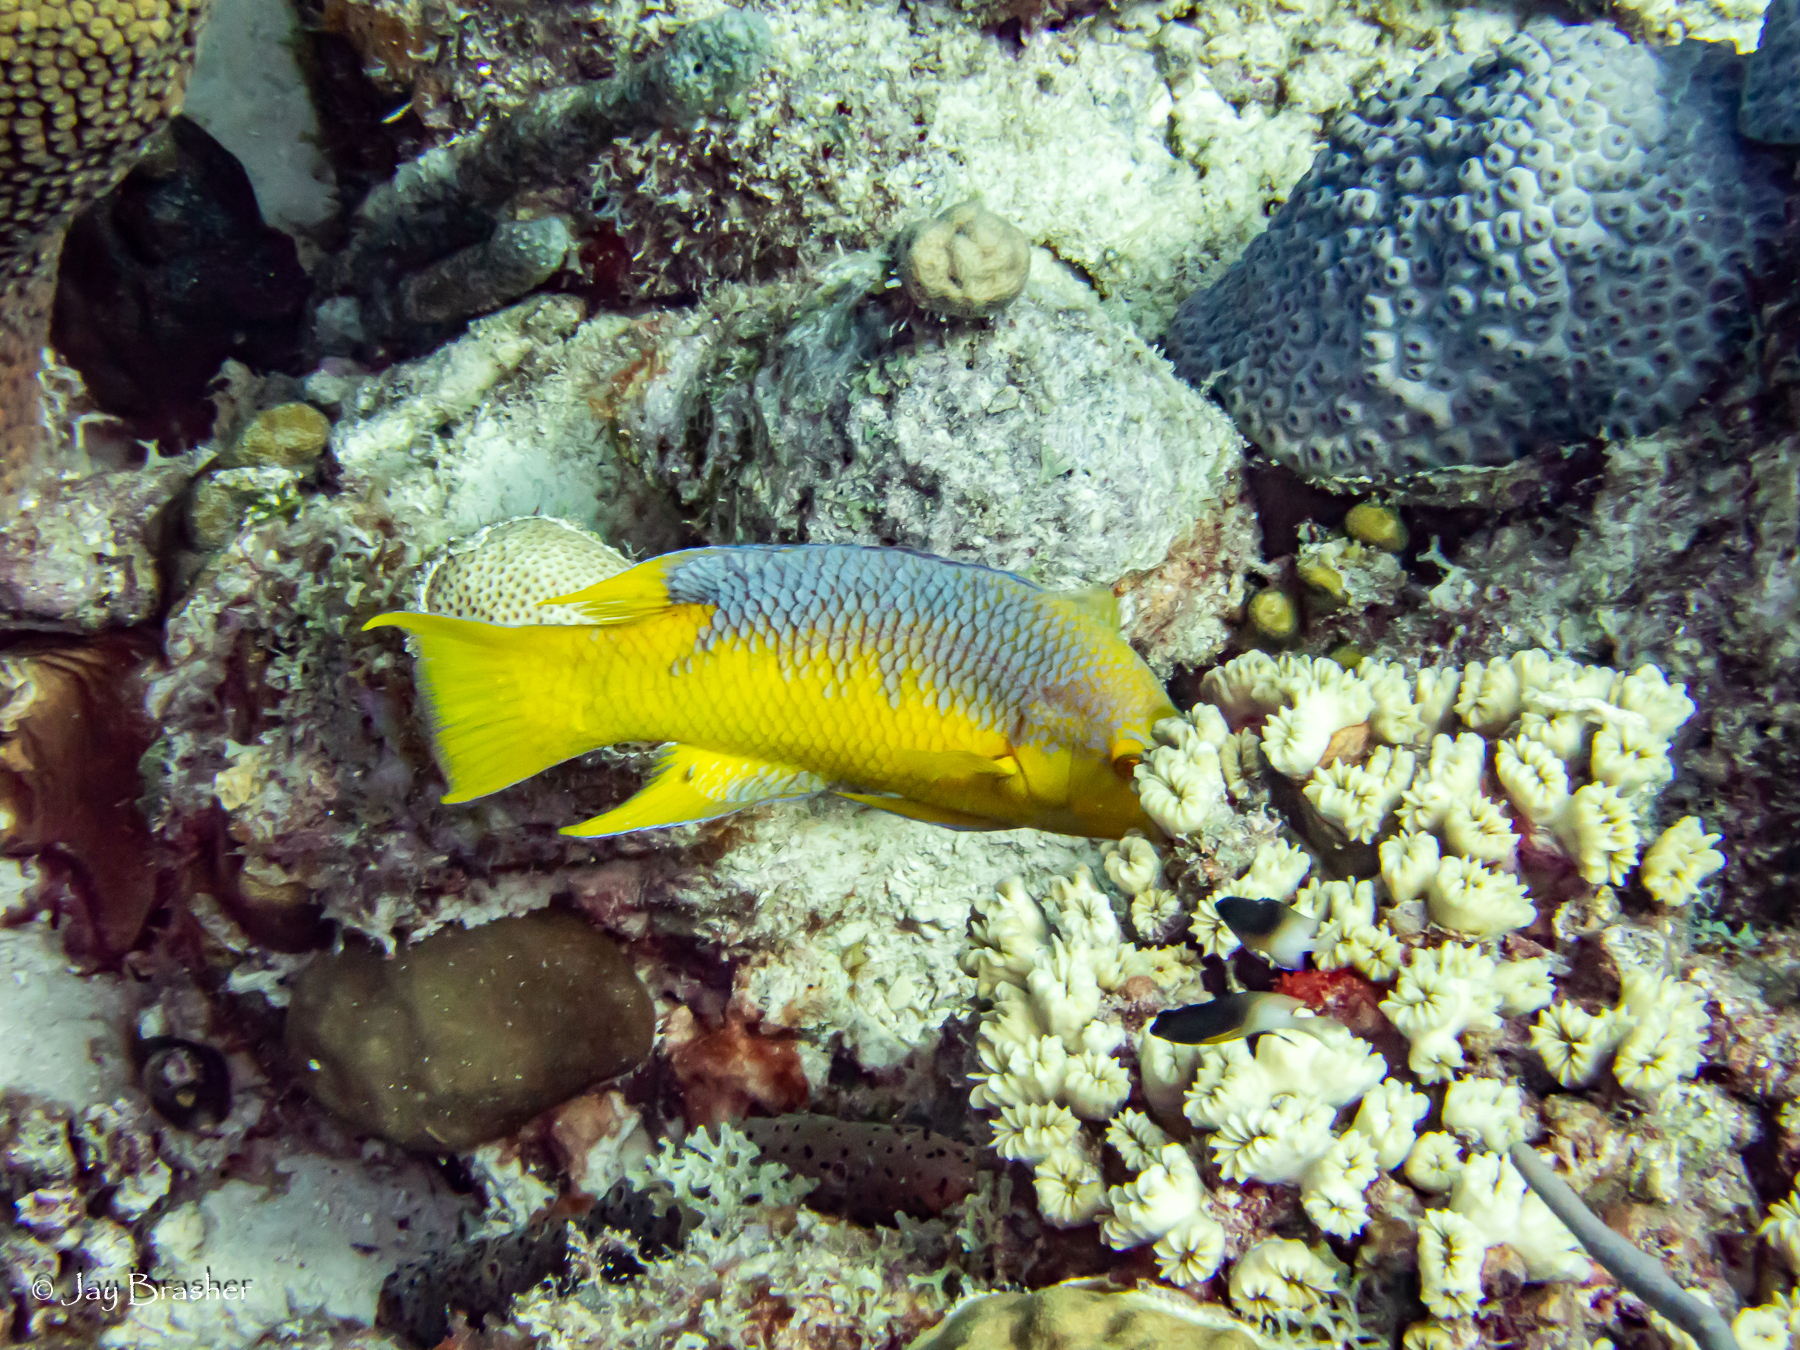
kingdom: Animalia
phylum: Chordata
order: Perciformes
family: Labridae
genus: Bodianus
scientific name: Bodianus rufus
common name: Spanish hogfish
